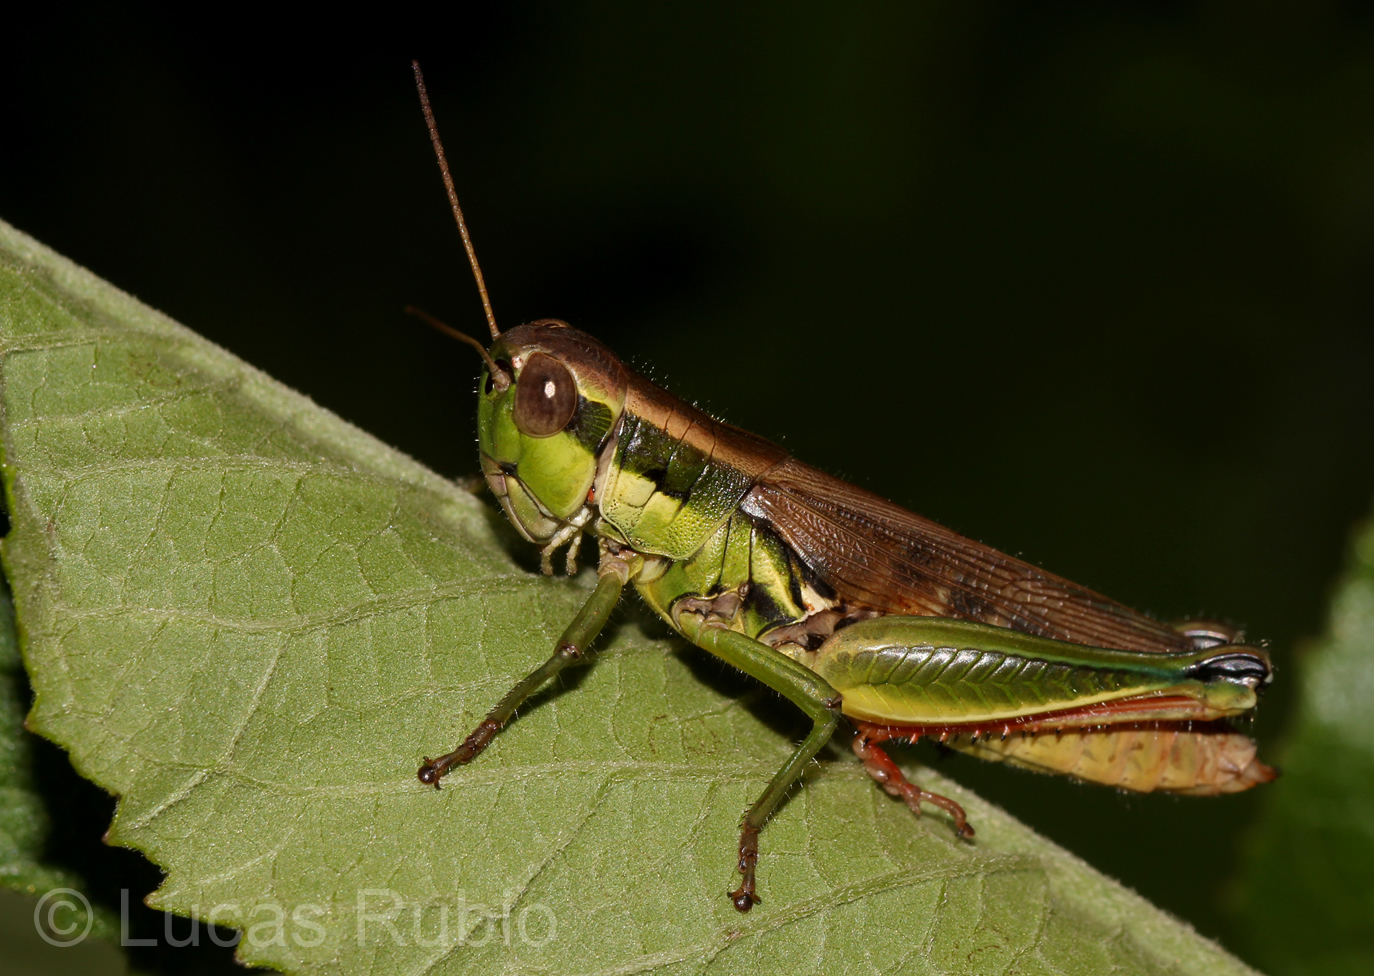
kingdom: Animalia
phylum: Arthropoda
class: Insecta
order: Orthoptera
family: Acrididae
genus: Leiotettix
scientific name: Leiotettix pulcher
